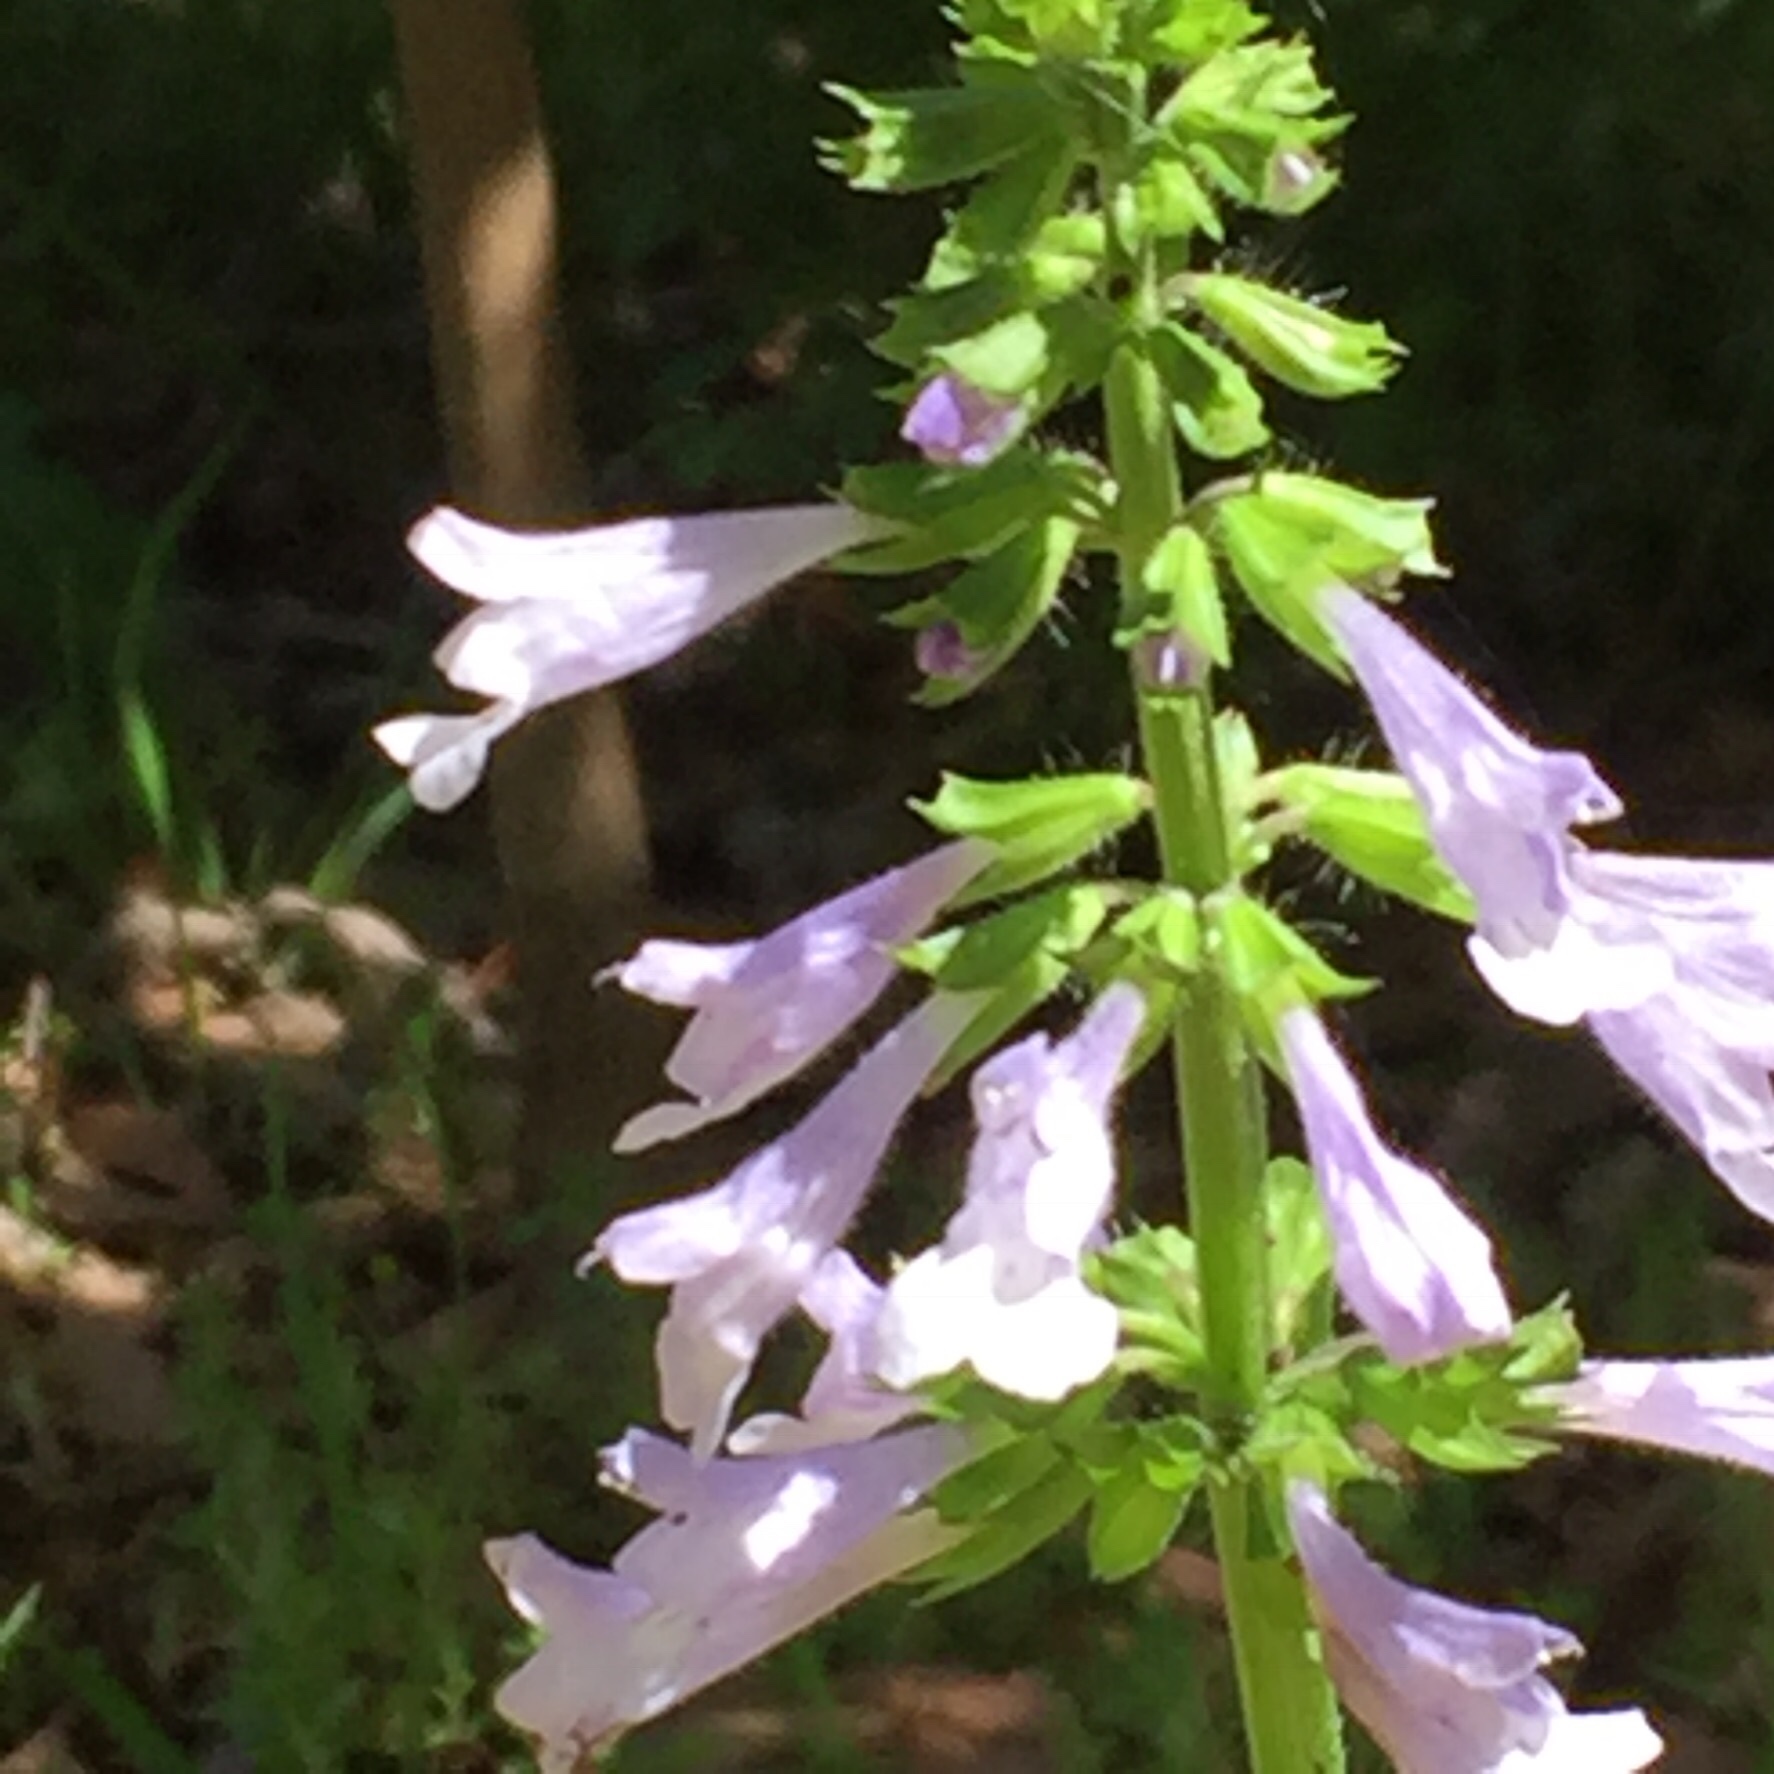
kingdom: Plantae
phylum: Tracheophyta
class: Magnoliopsida
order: Lamiales
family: Lamiaceae
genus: Salvia
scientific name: Salvia lyrata
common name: Cancerweed
